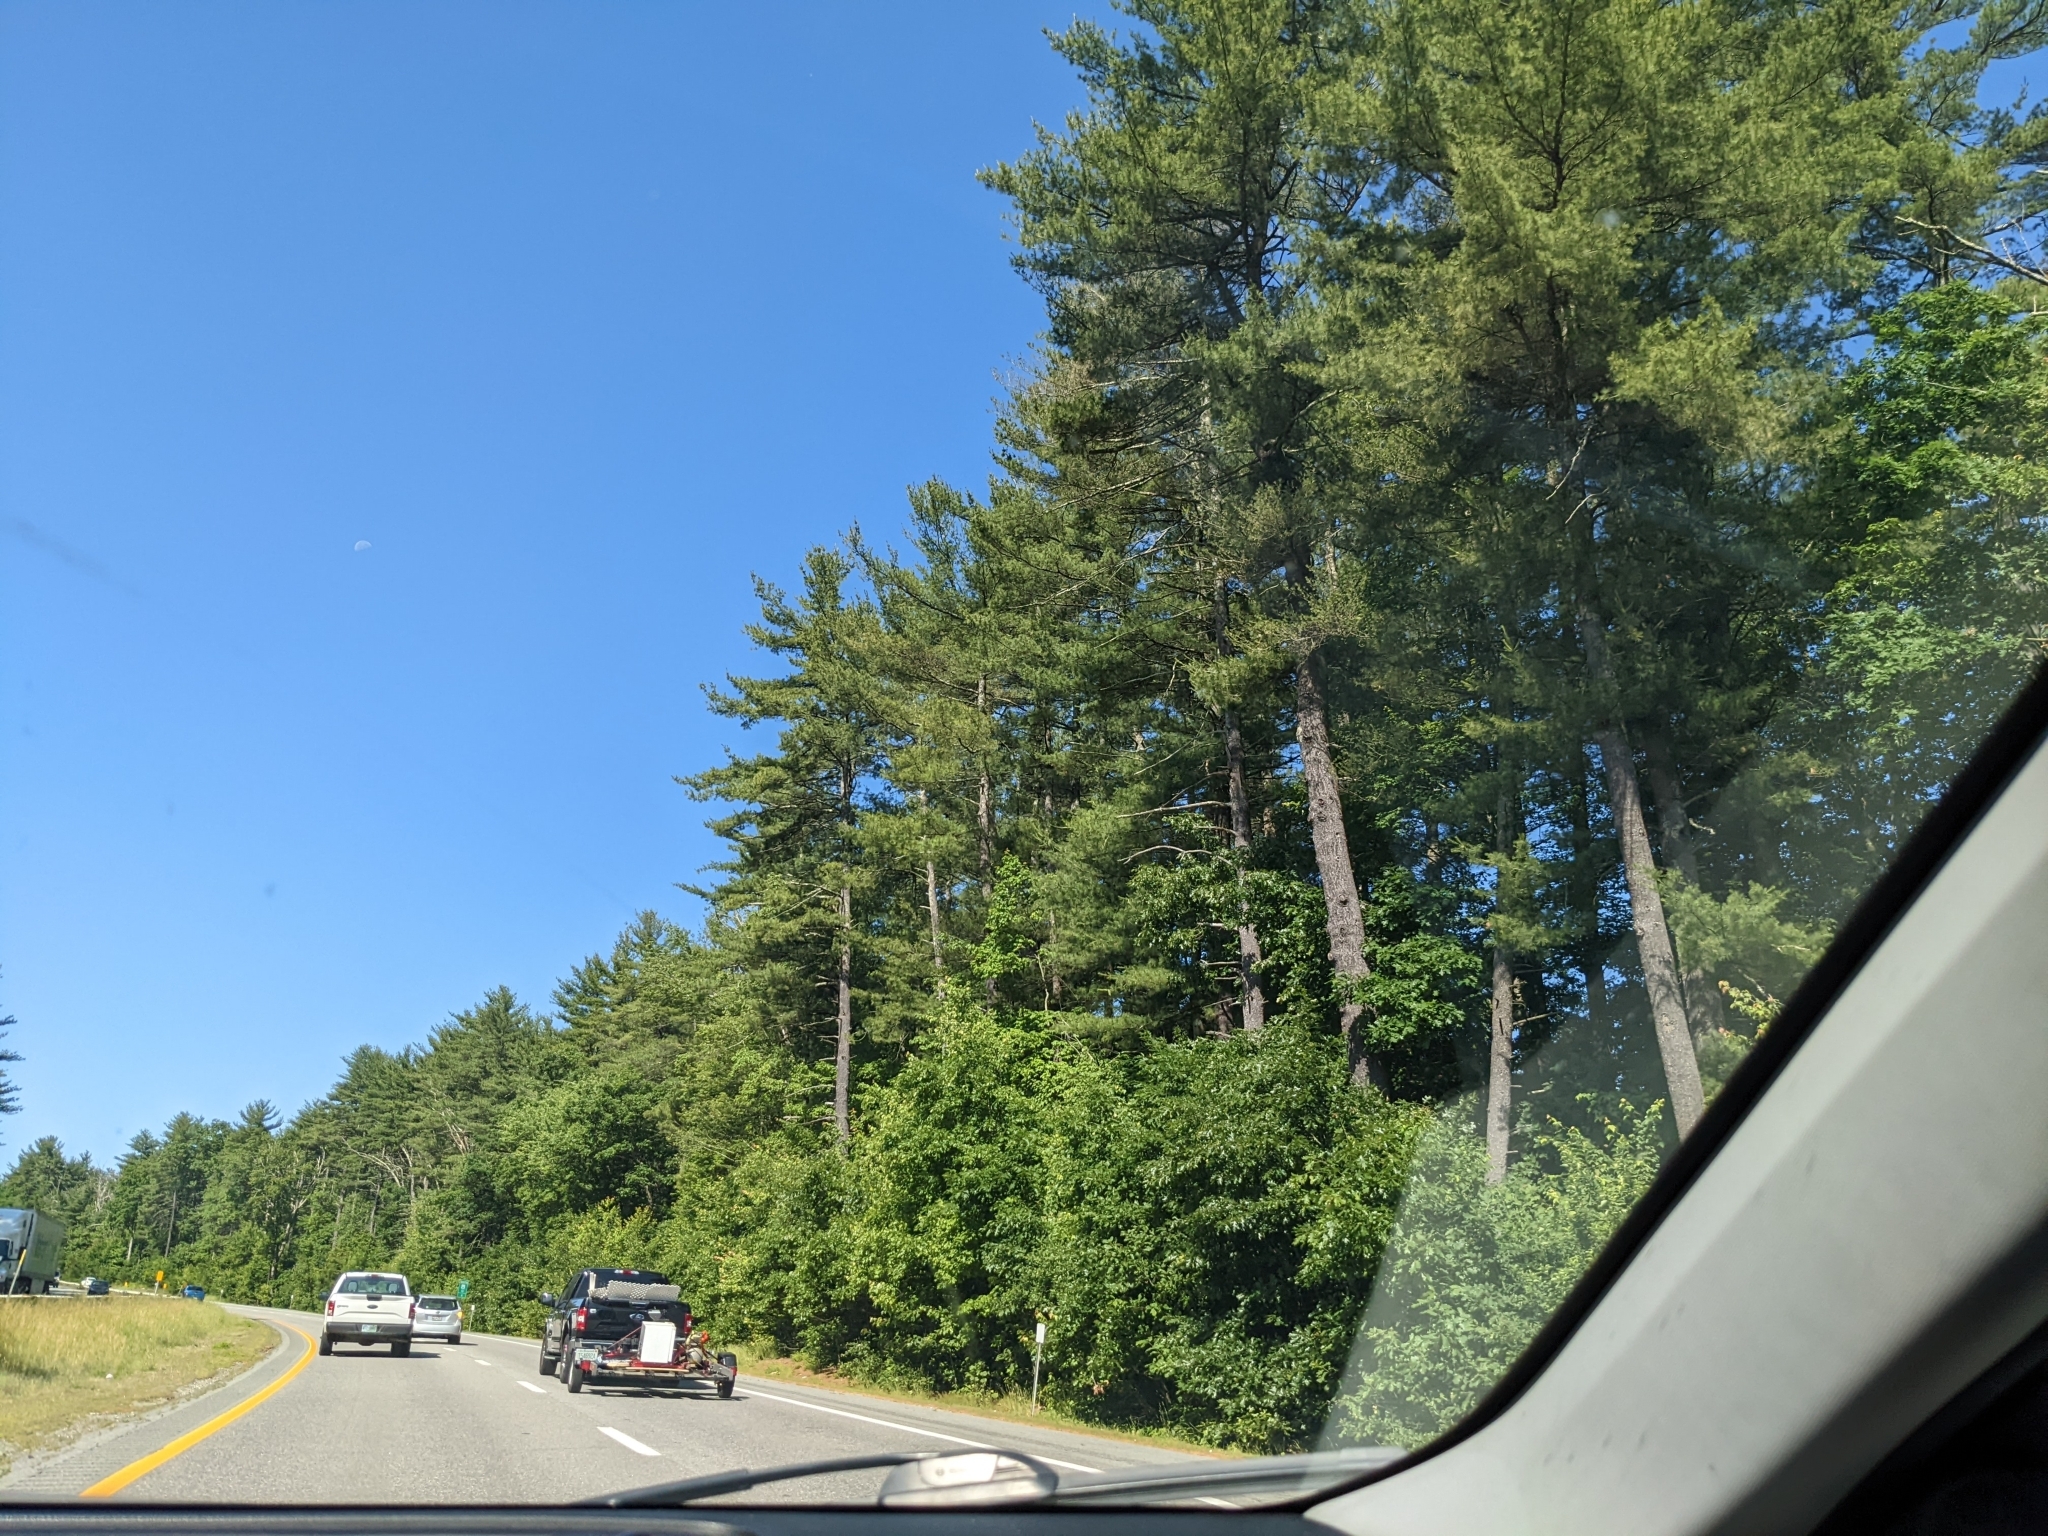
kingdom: Plantae
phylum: Tracheophyta
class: Pinopsida
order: Pinales
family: Pinaceae
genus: Pinus
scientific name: Pinus strobus
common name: Weymouth pine
